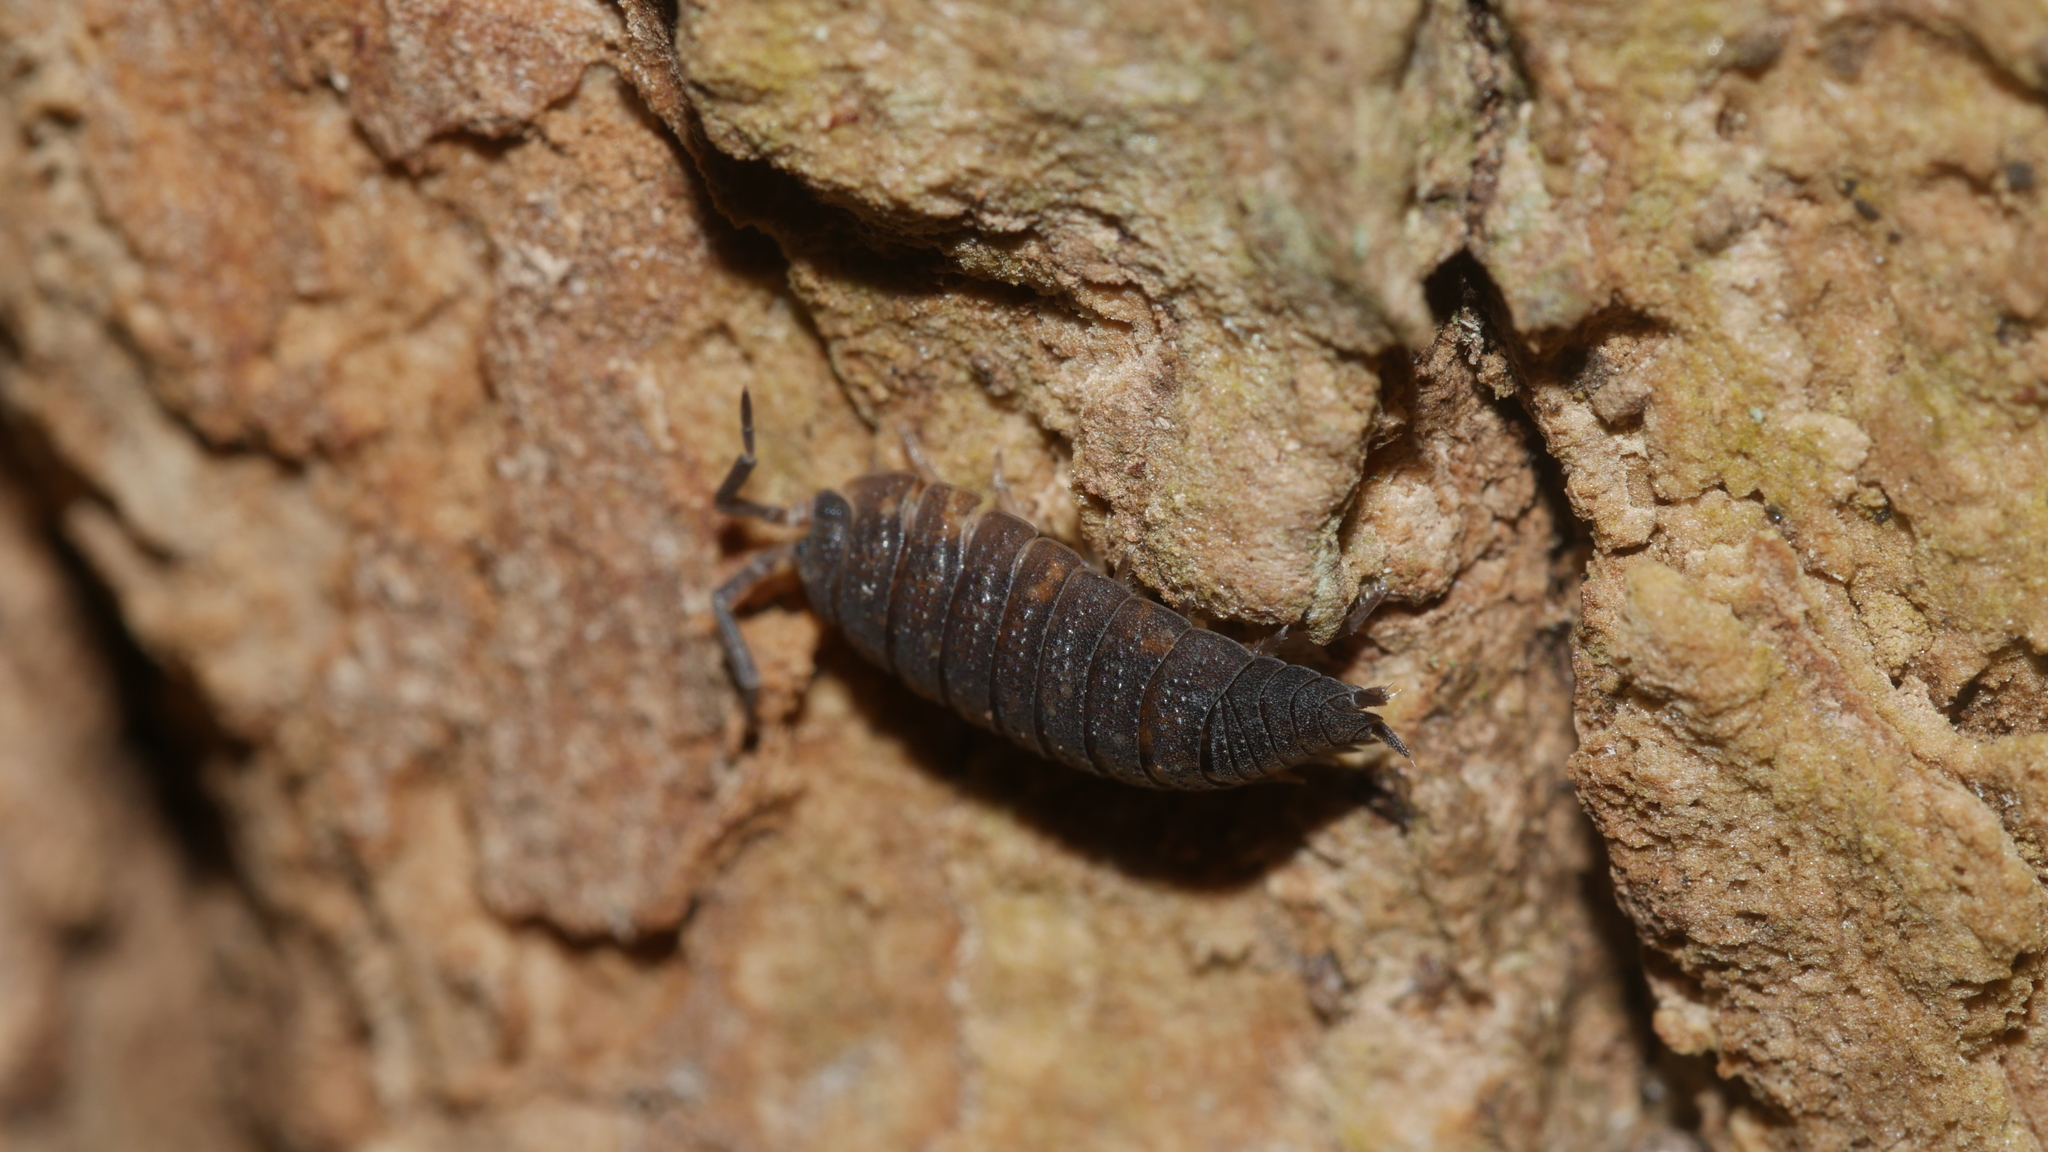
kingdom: Animalia
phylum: Arthropoda
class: Malacostraca
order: Isopoda
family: Porcellionidae
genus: Porcellio
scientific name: Porcellio scaber
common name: Common rough woodlouse
